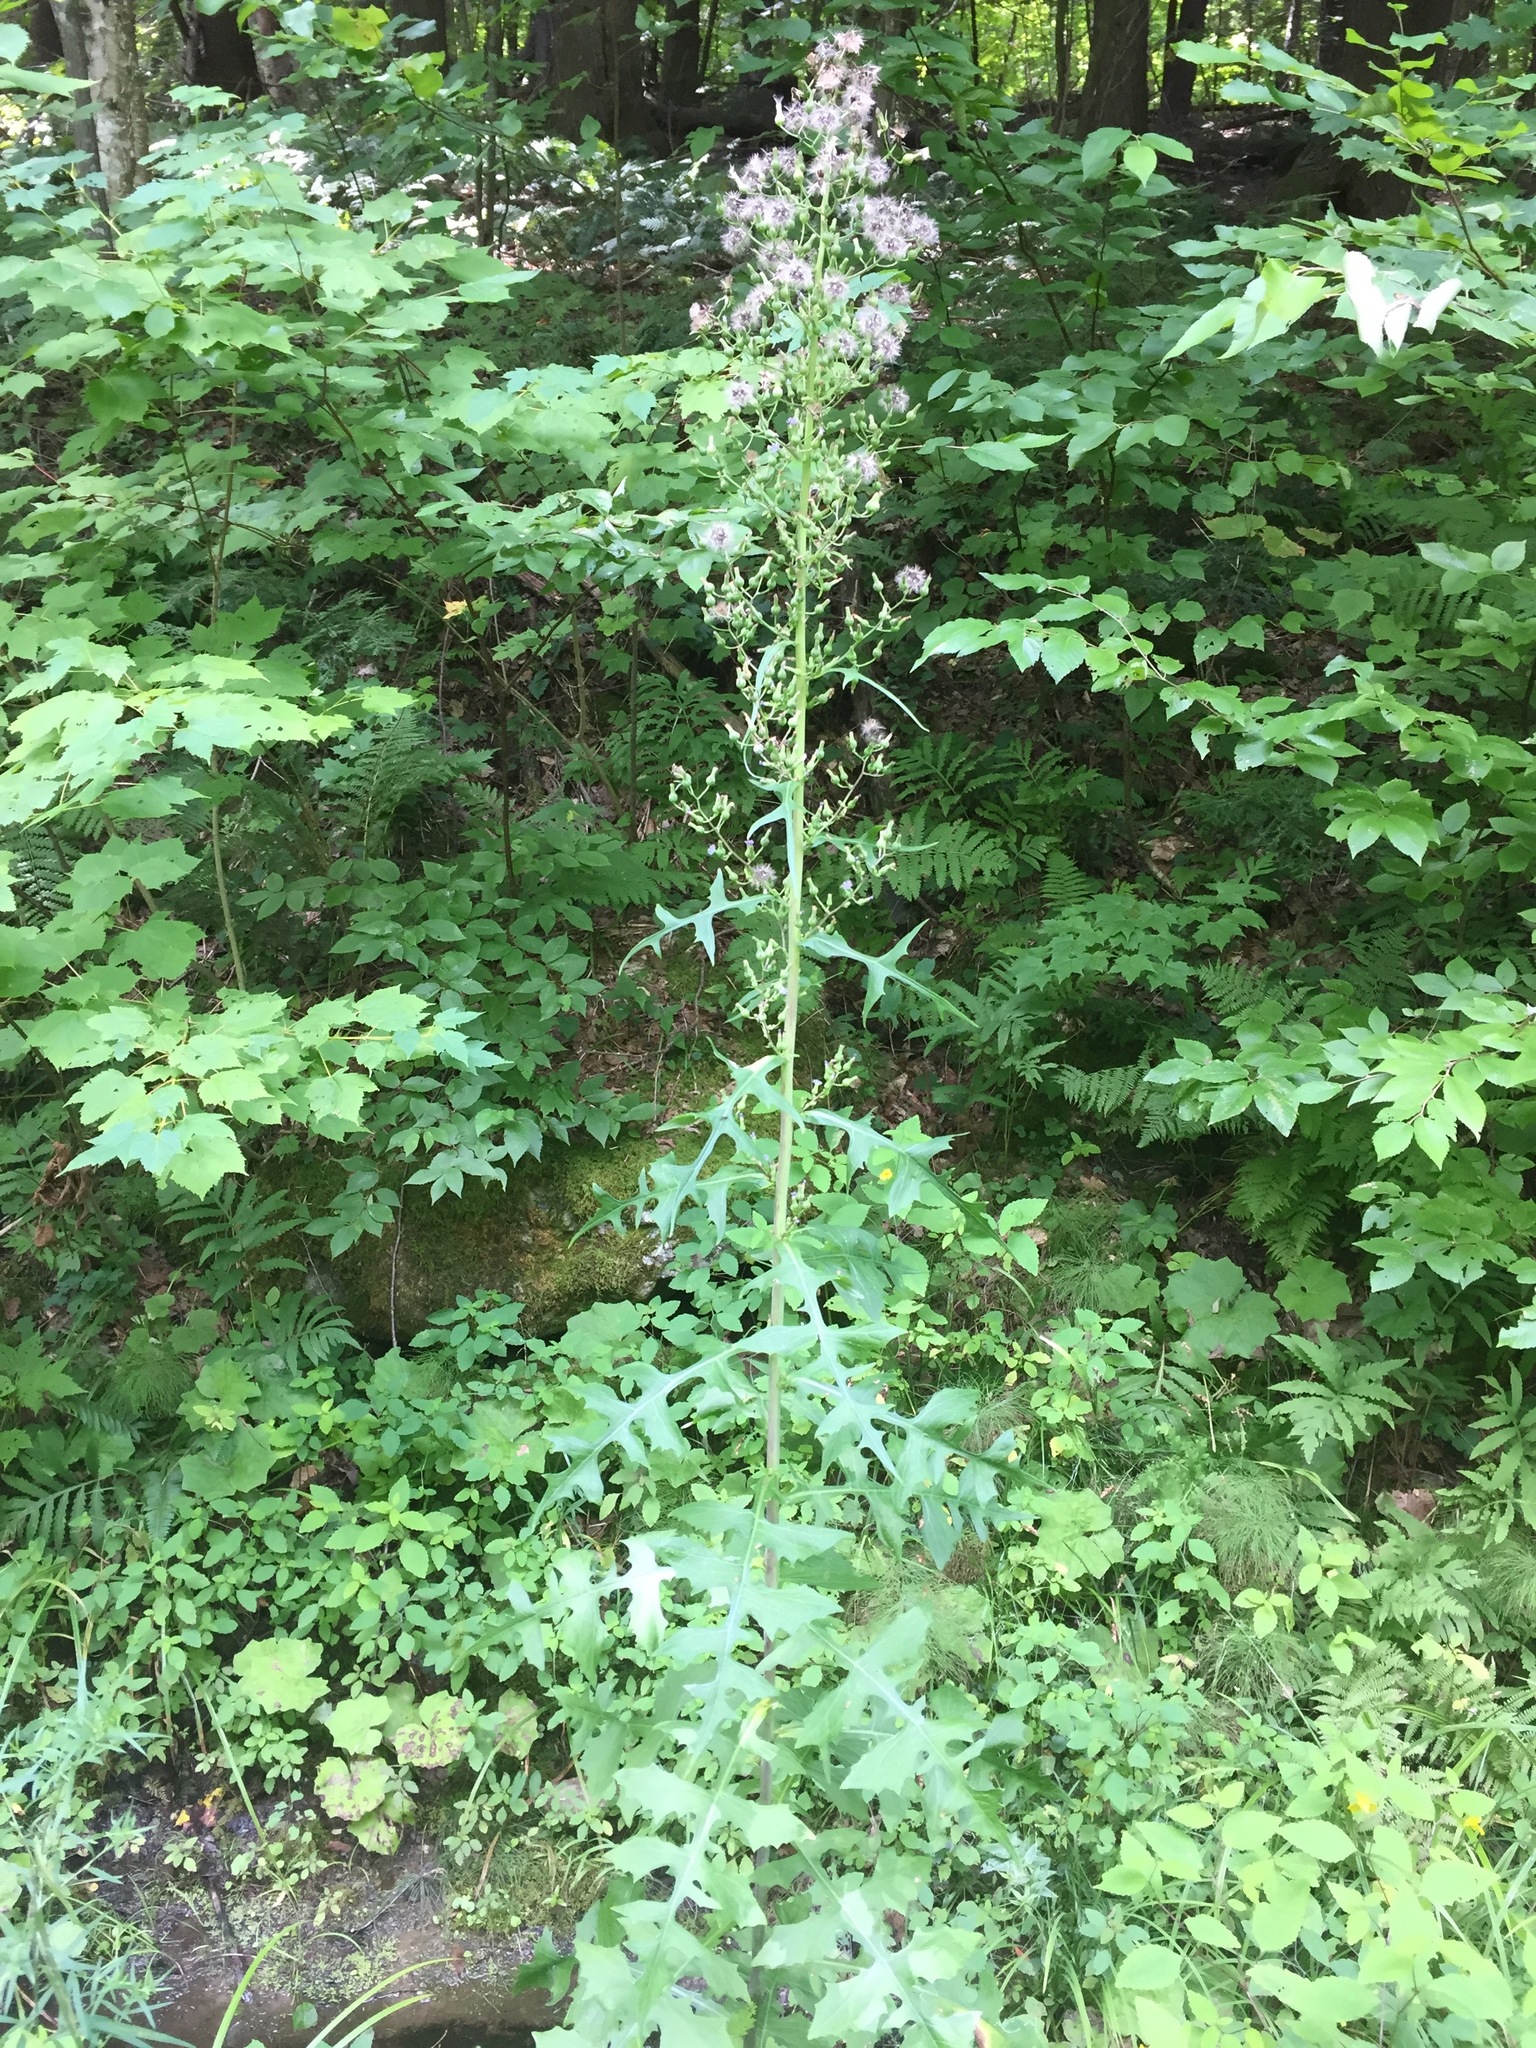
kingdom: Plantae
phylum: Tracheophyta
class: Magnoliopsida
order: Asterales
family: Asteraceae
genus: Lactuca
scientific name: Lactuca biennis
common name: Blue wood lettuce
